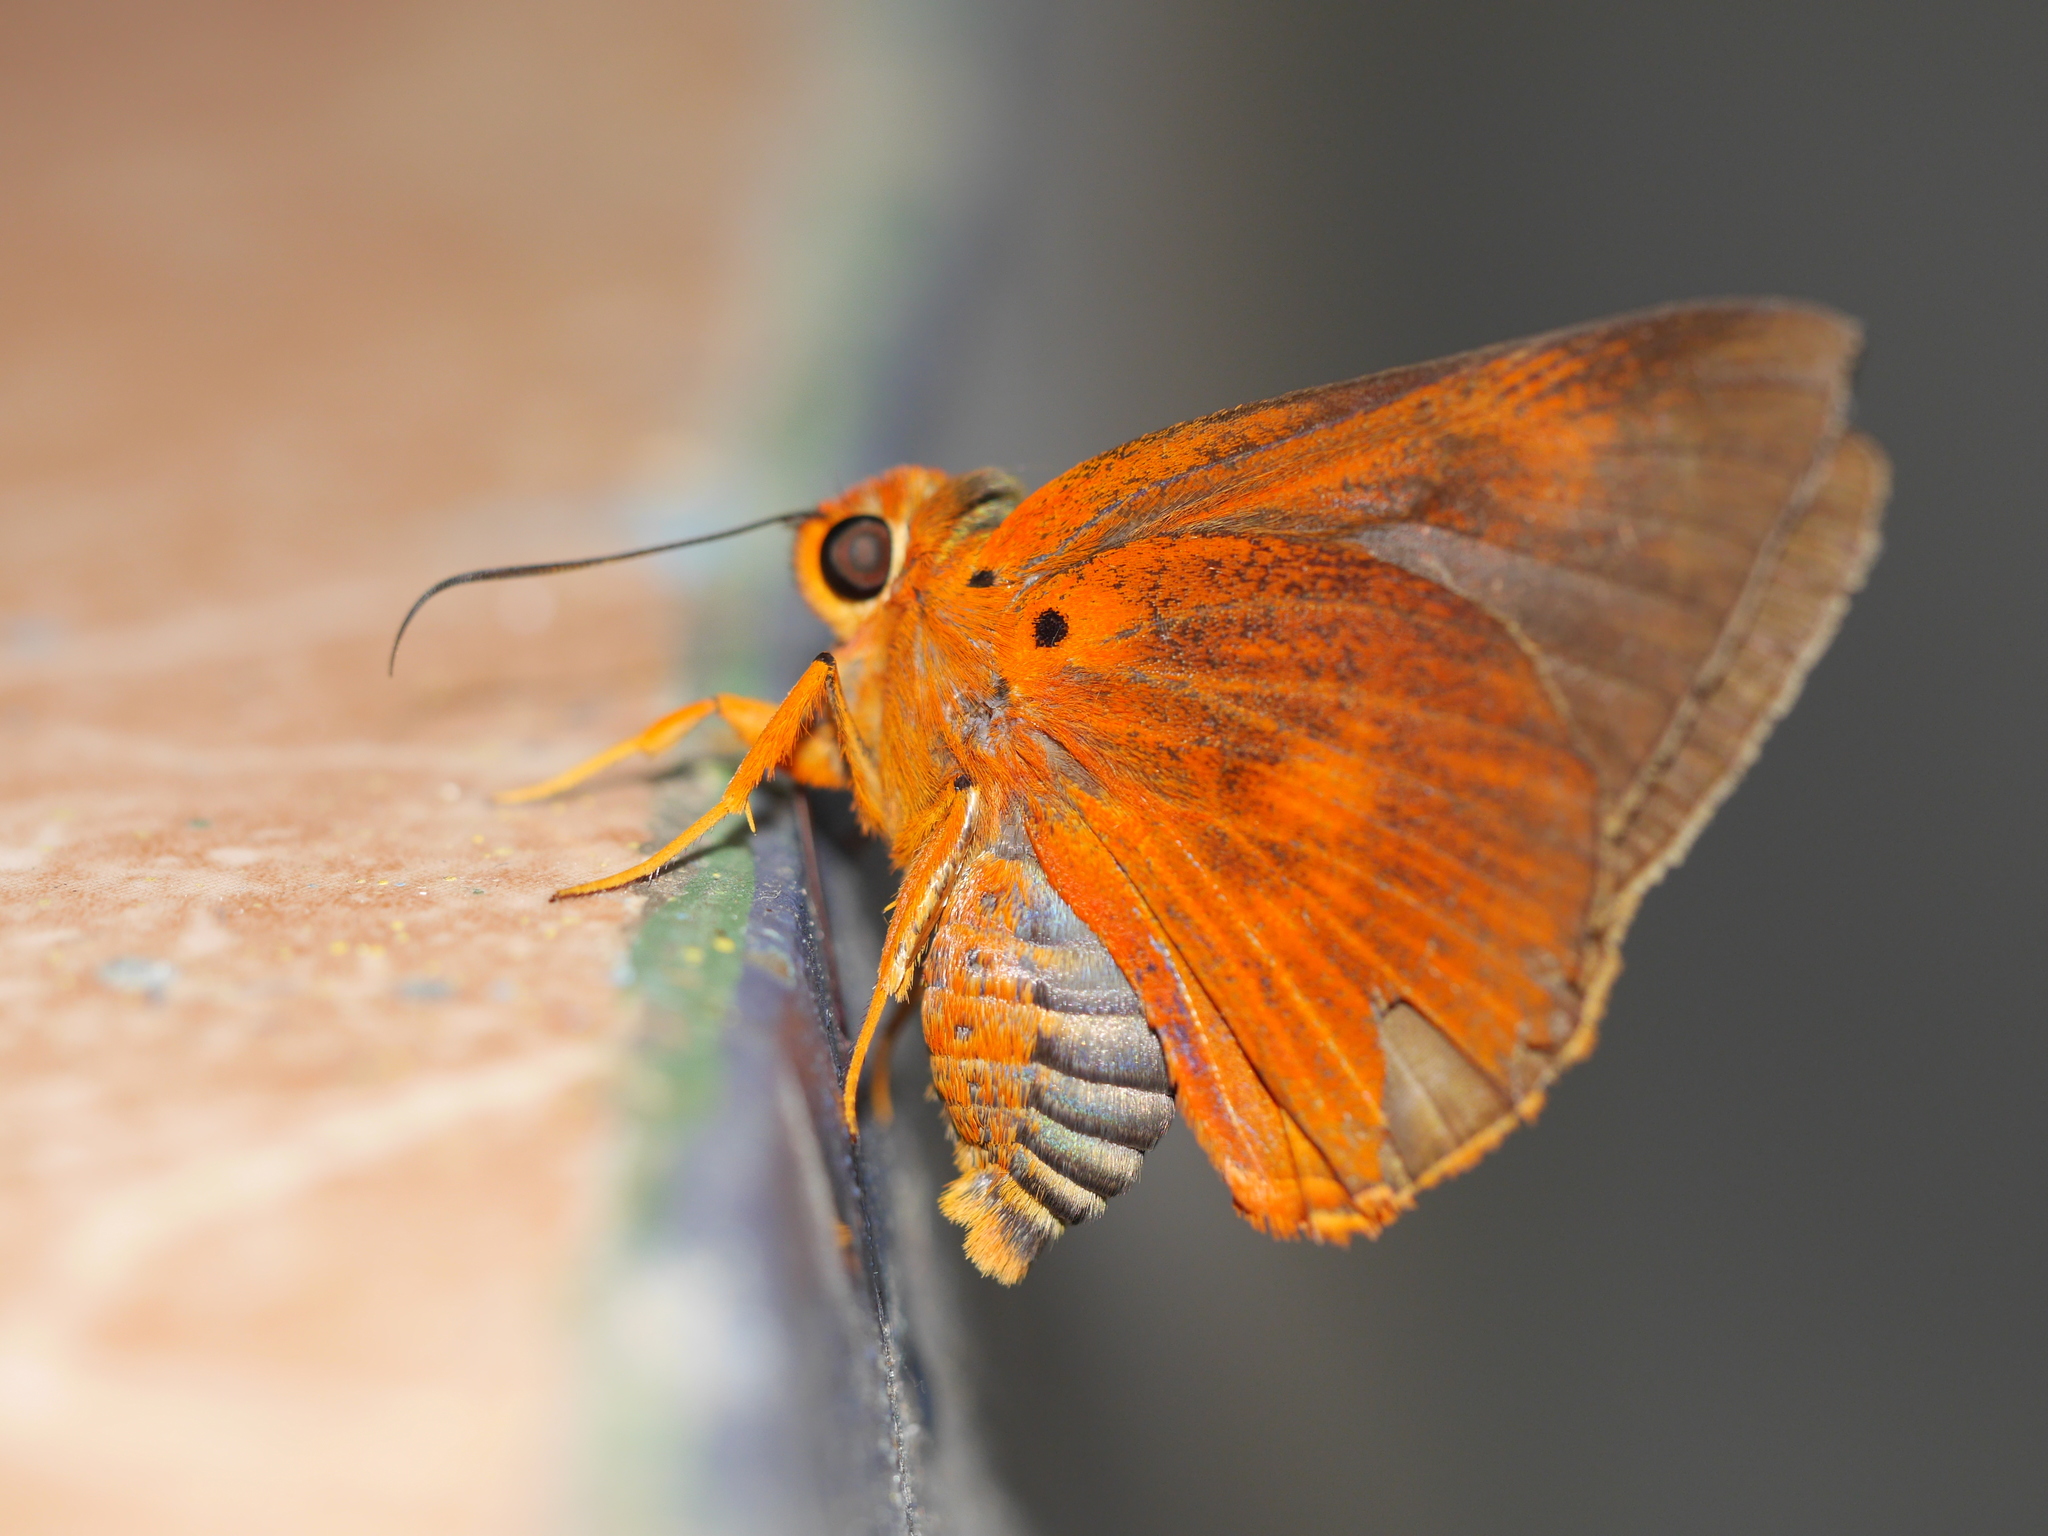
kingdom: Animalia
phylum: Arthropoda
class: Insecta
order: Lepidoptera
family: Hesperiidae
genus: Bibasis
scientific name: Bibasis harisa
